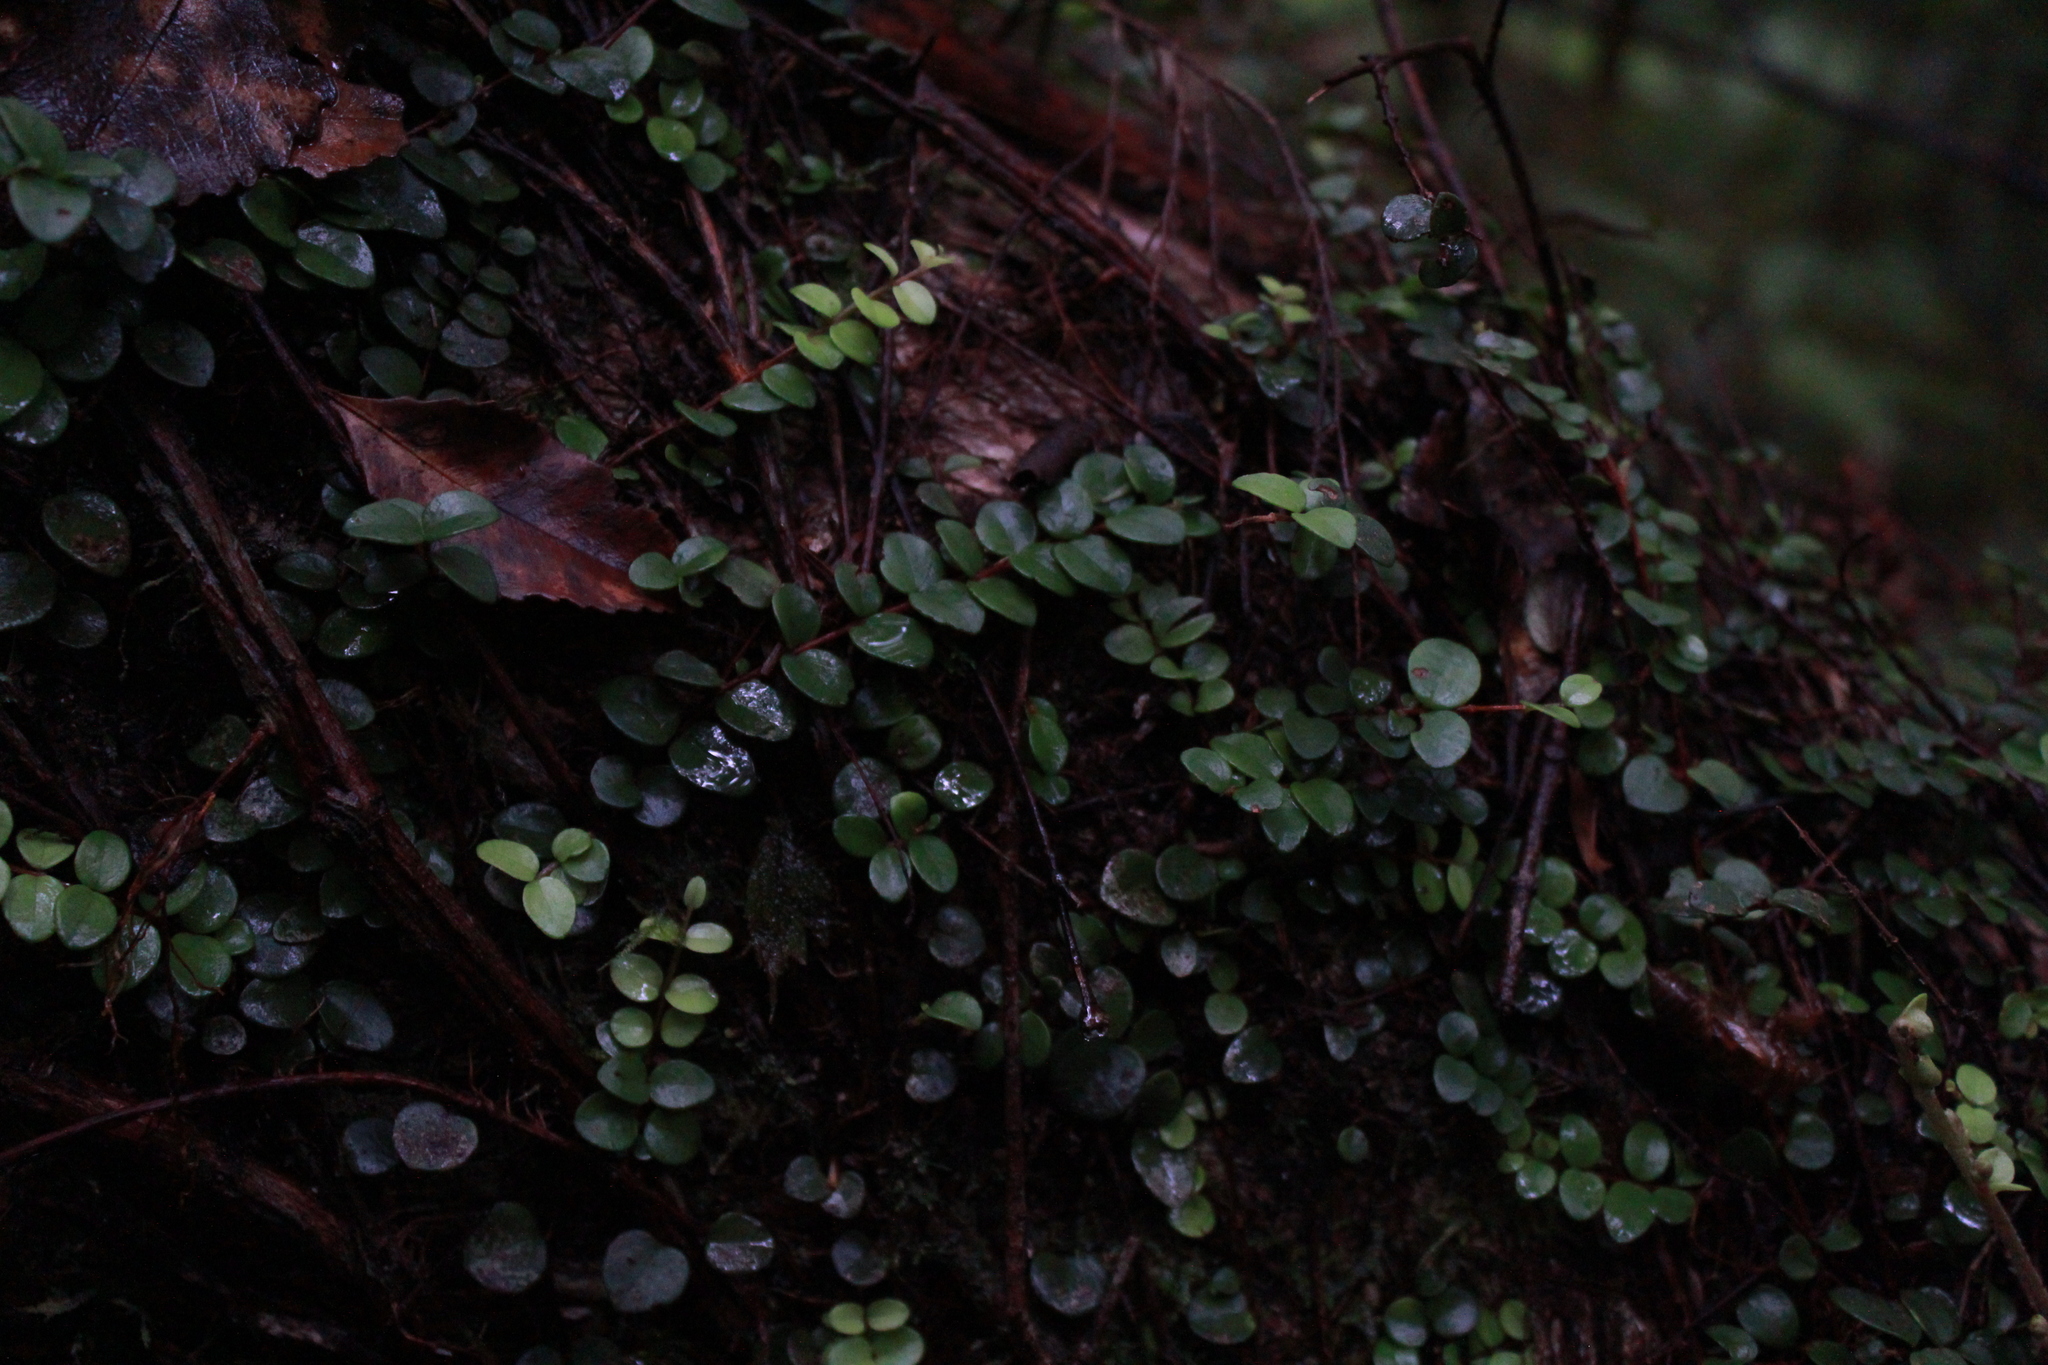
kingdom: Plantae
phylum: Tracheophyta
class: Magnoliopsida
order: Myrtales
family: Myrtaceae
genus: Metrosideros
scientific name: Metrosideros perforata
